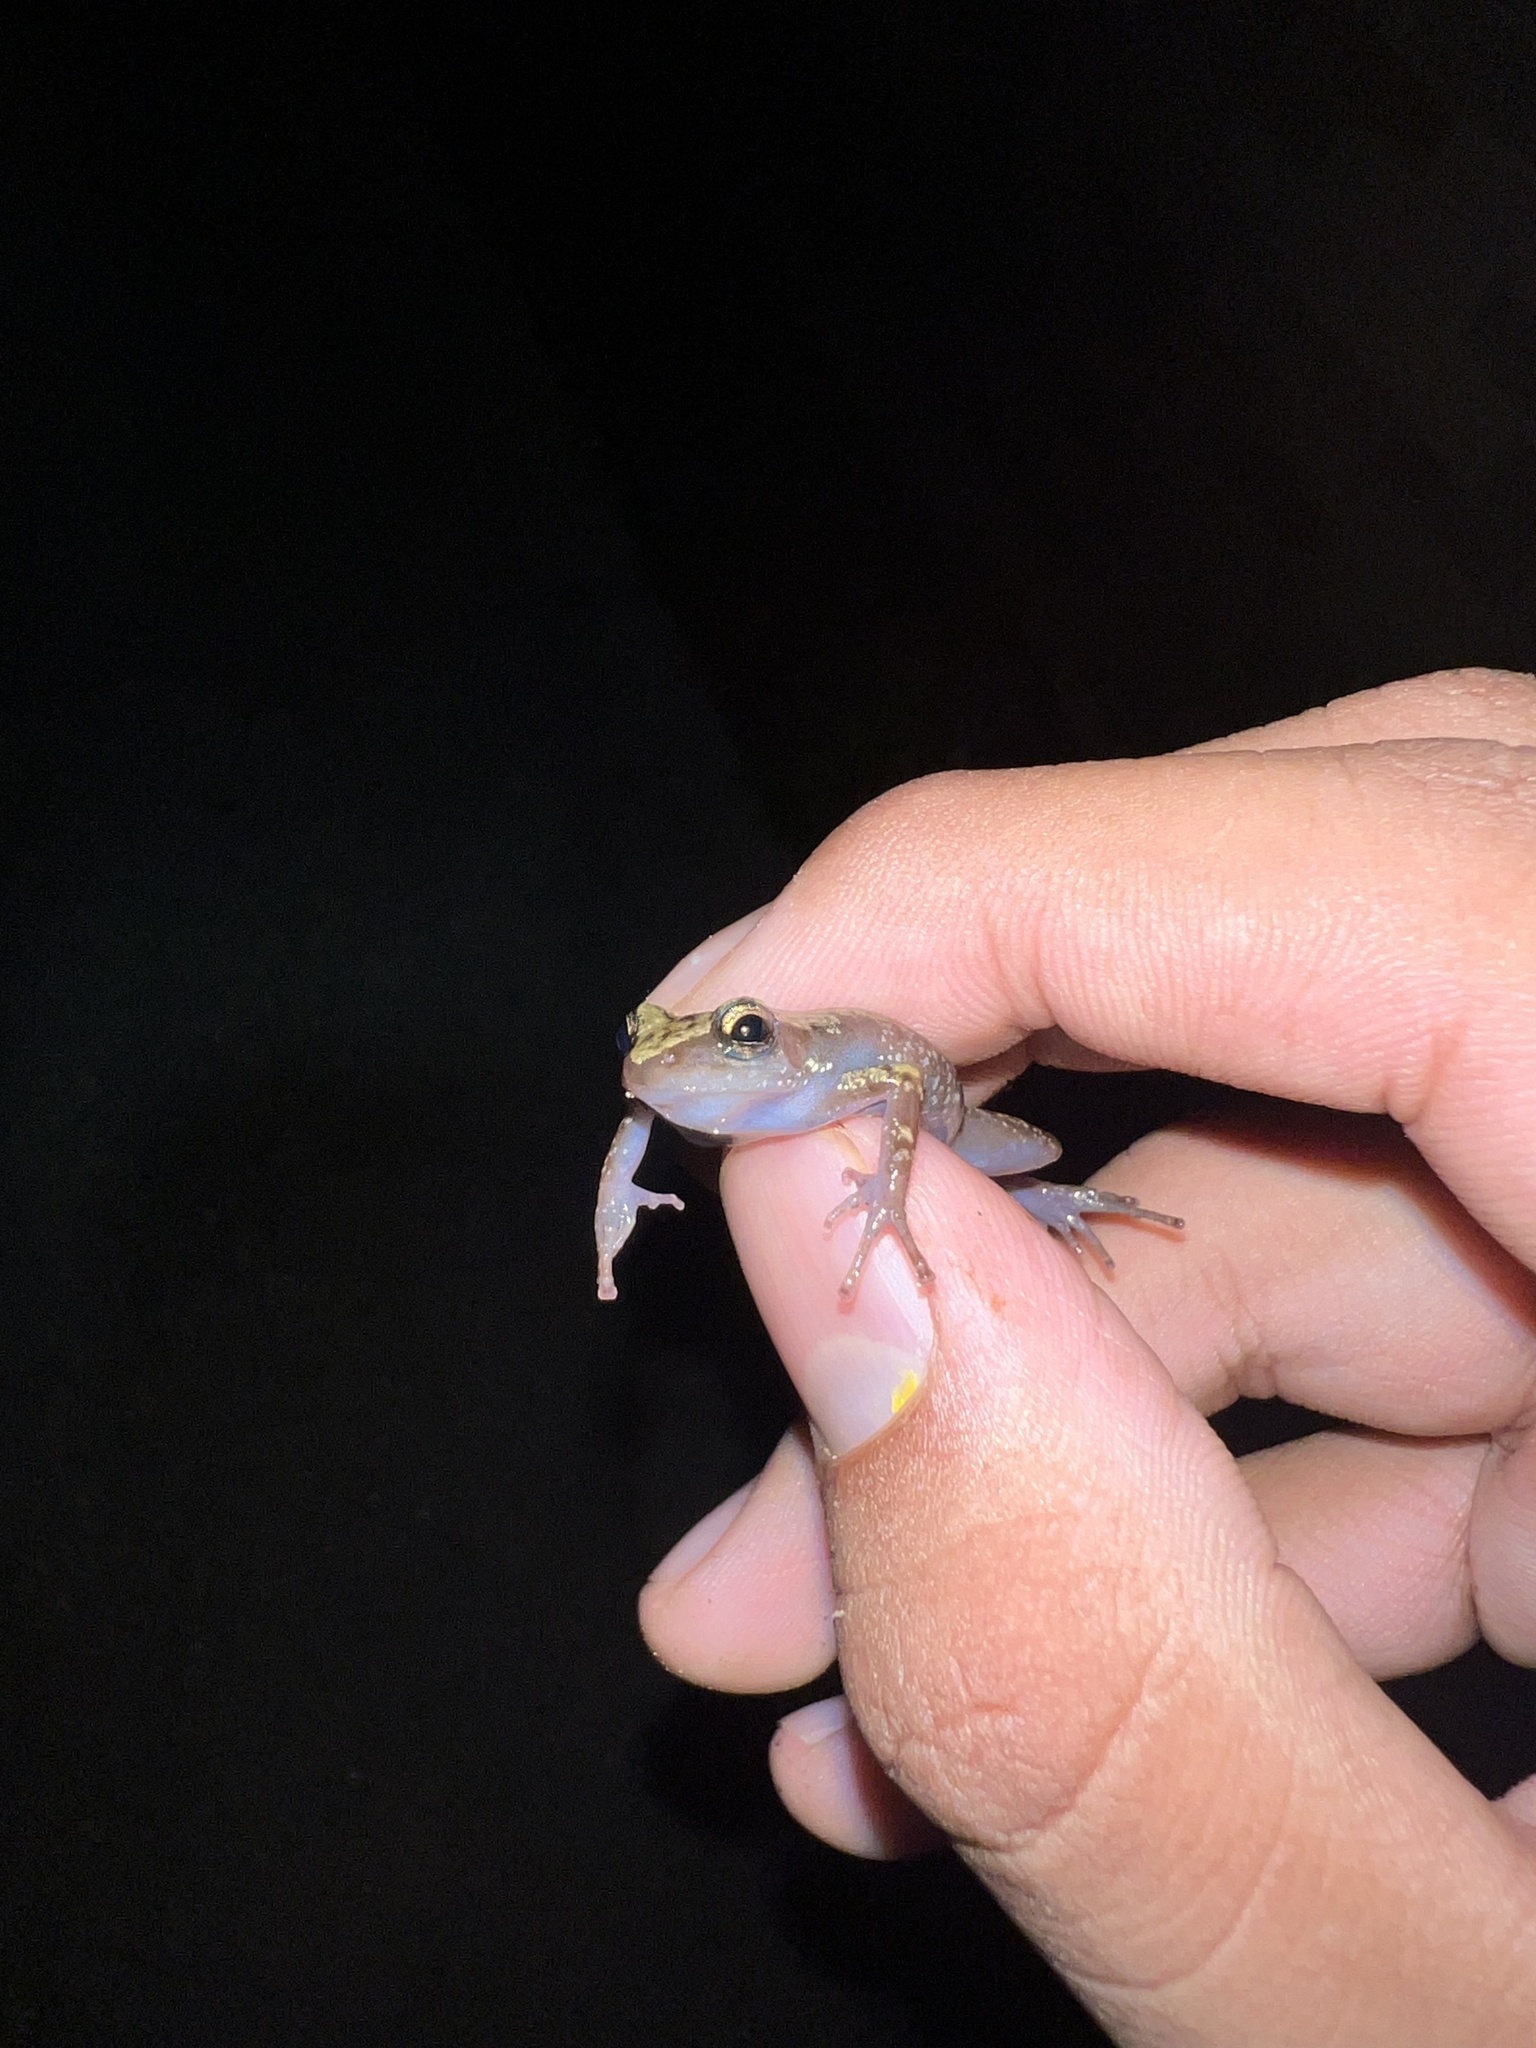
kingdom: Animalia
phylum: Chordata
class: Amphibia
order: Anura
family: Eleutherodactylidae
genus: Eleutherodactylus
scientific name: Eleutherodactylus marnockii
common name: Cliff chirping frog
